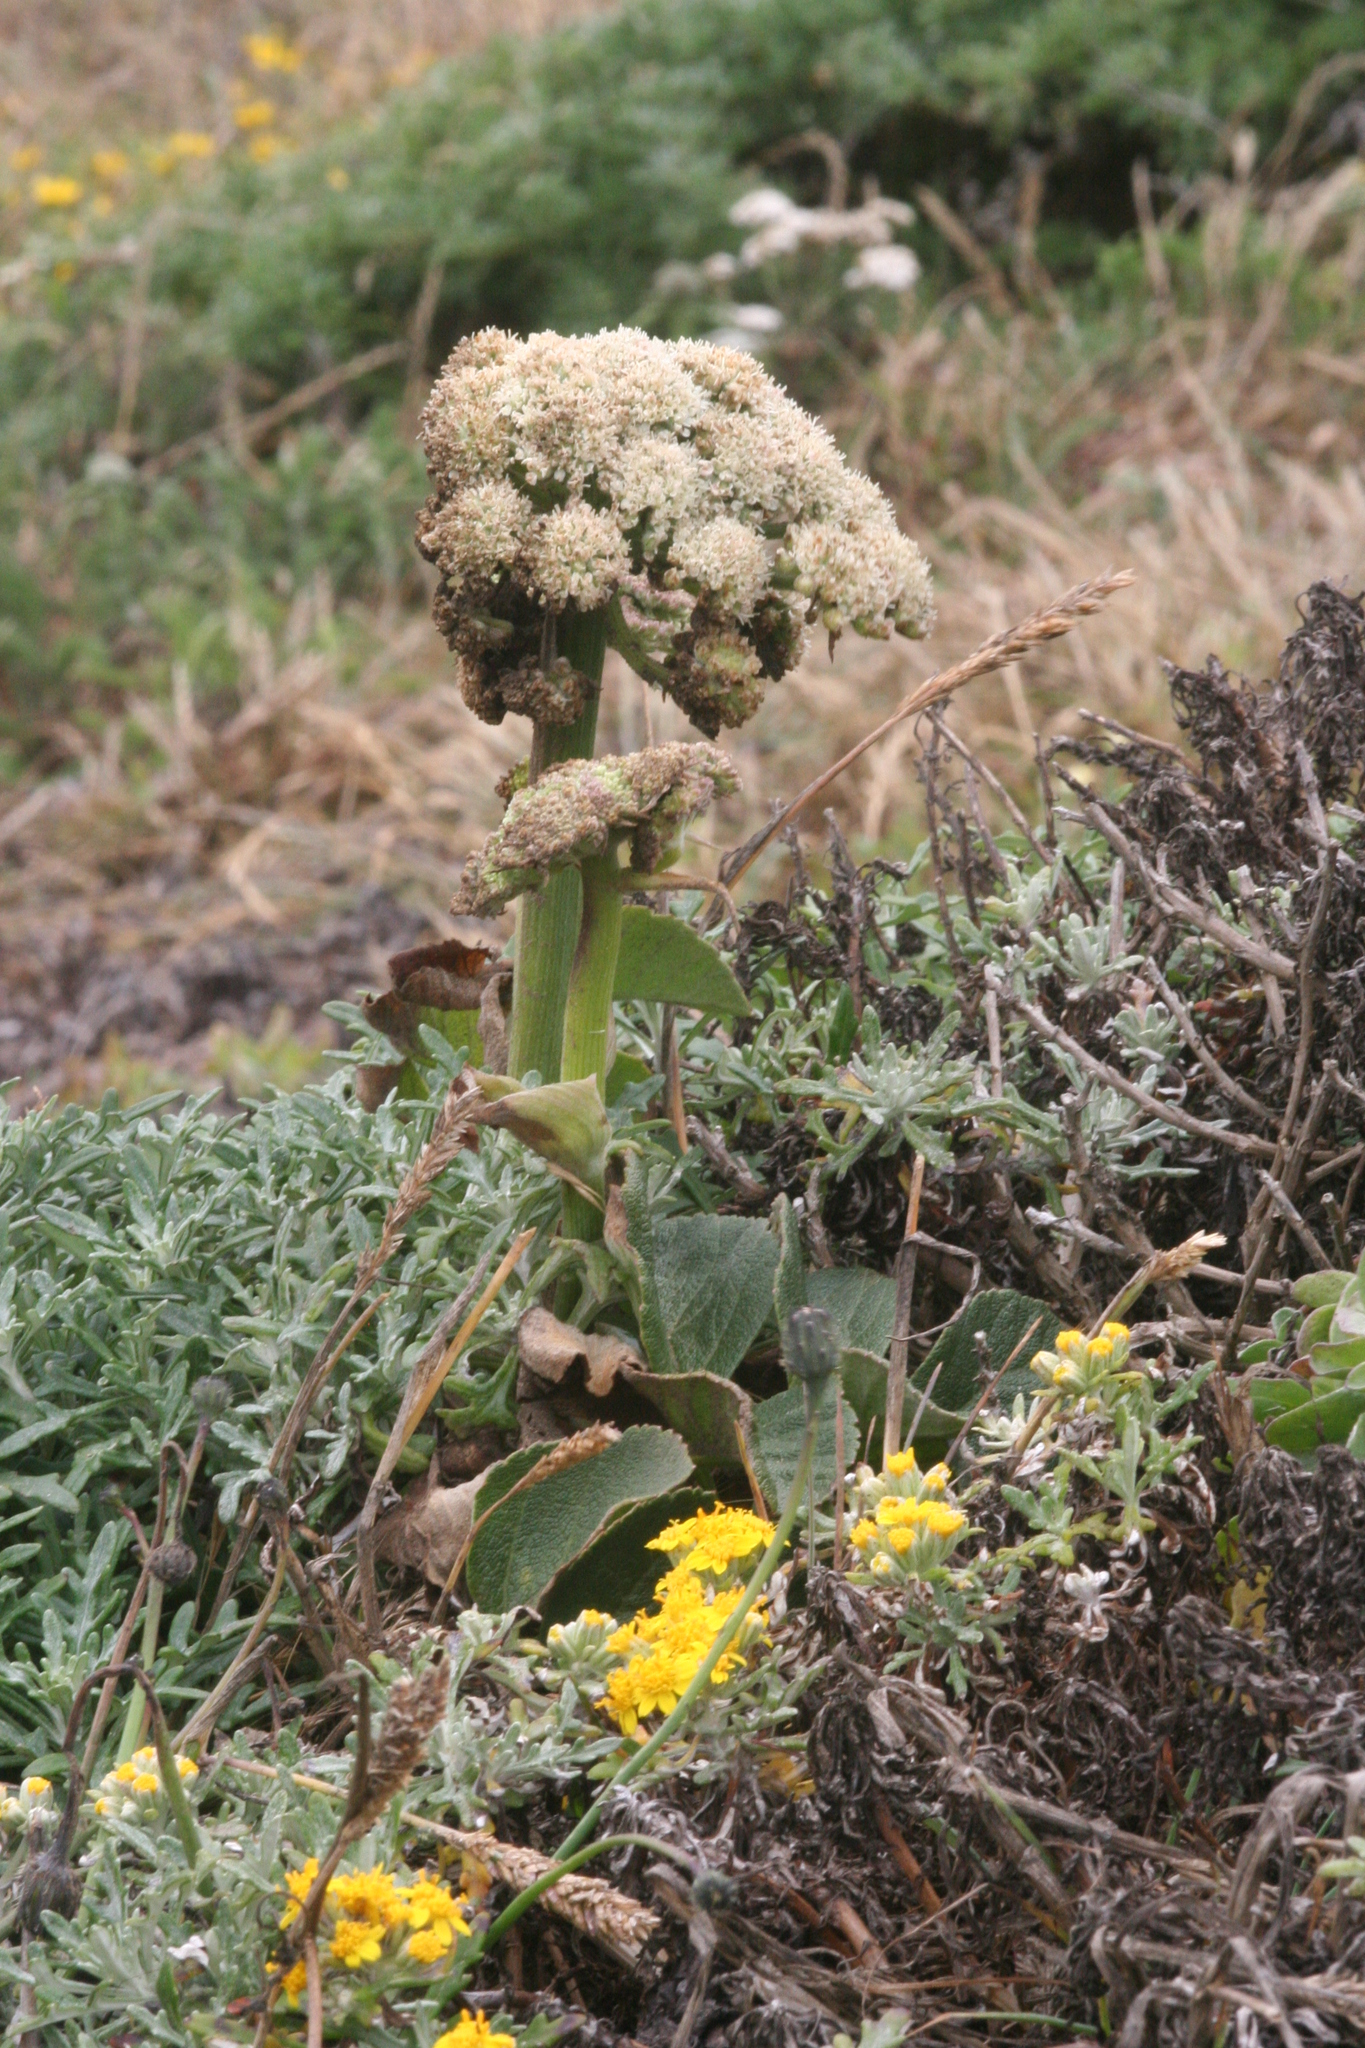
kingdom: Plantae
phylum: Tracheophyta
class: Magnoliopsida
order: Apiales
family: Apiaceae
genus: Angelica
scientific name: Angelica hendersonii
